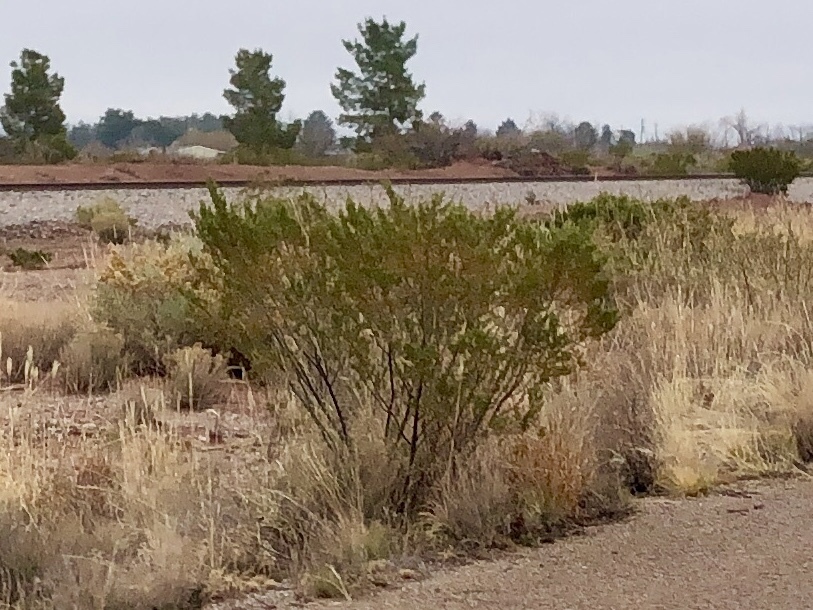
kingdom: Plantae
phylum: Tracheophyta
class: Magnoliopsida
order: Zygophyllales
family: Zygophyllaceae
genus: Larrea
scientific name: Larrea tridentata
